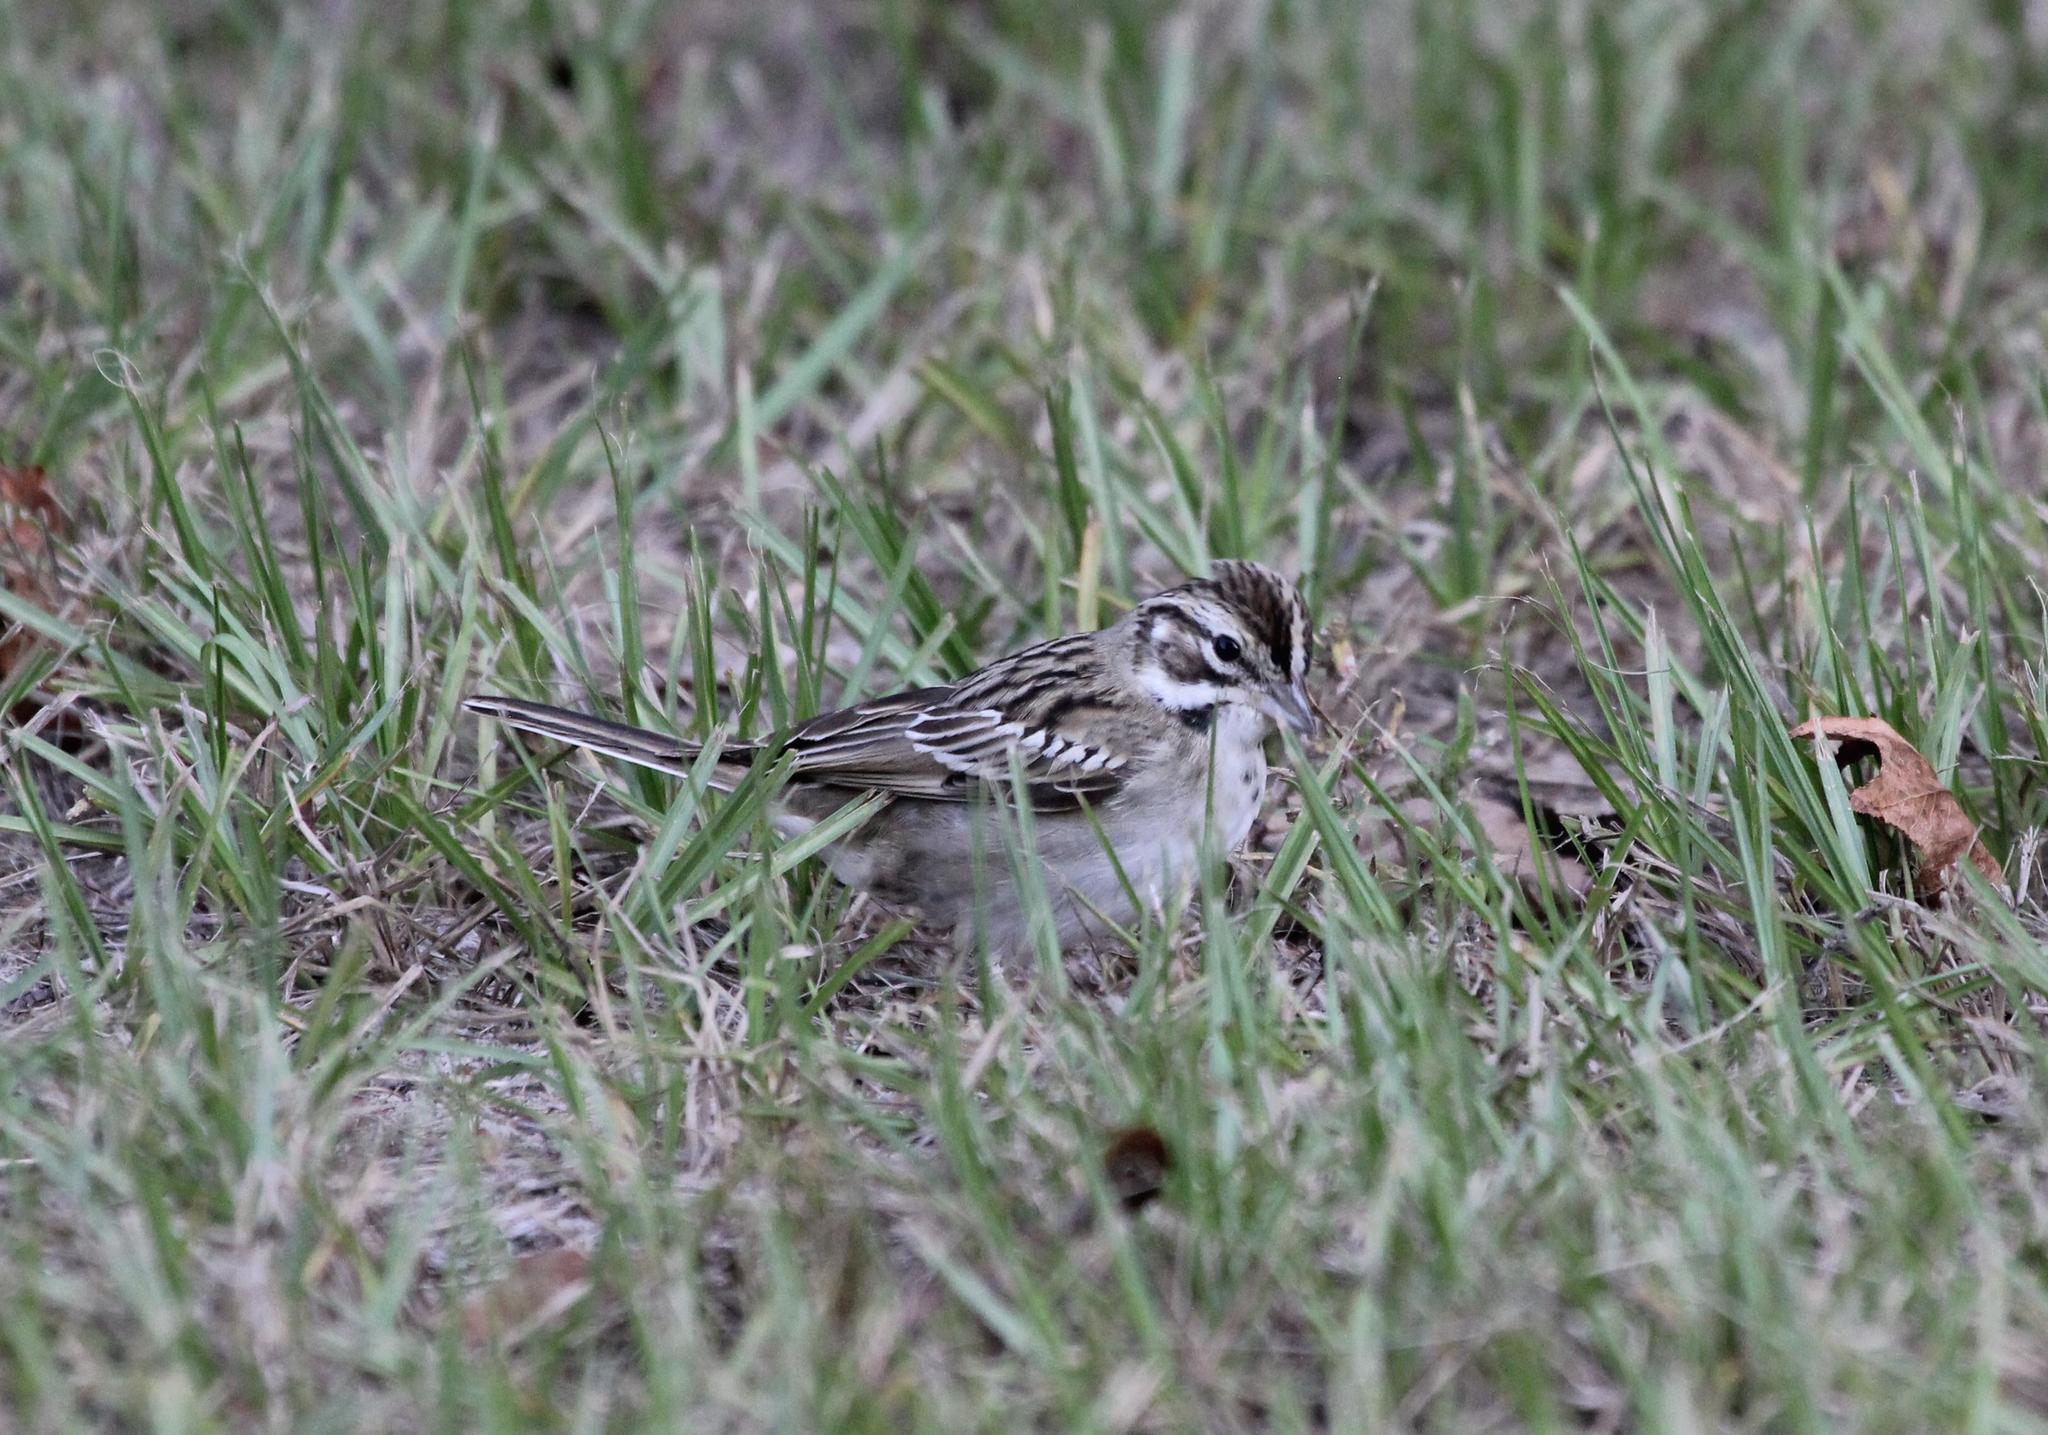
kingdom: Animalia
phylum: Chordata
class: Aves
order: Passeriformes
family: Passerellidae
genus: Chondestes
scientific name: Chondestes grammacus
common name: Lark sparrow
